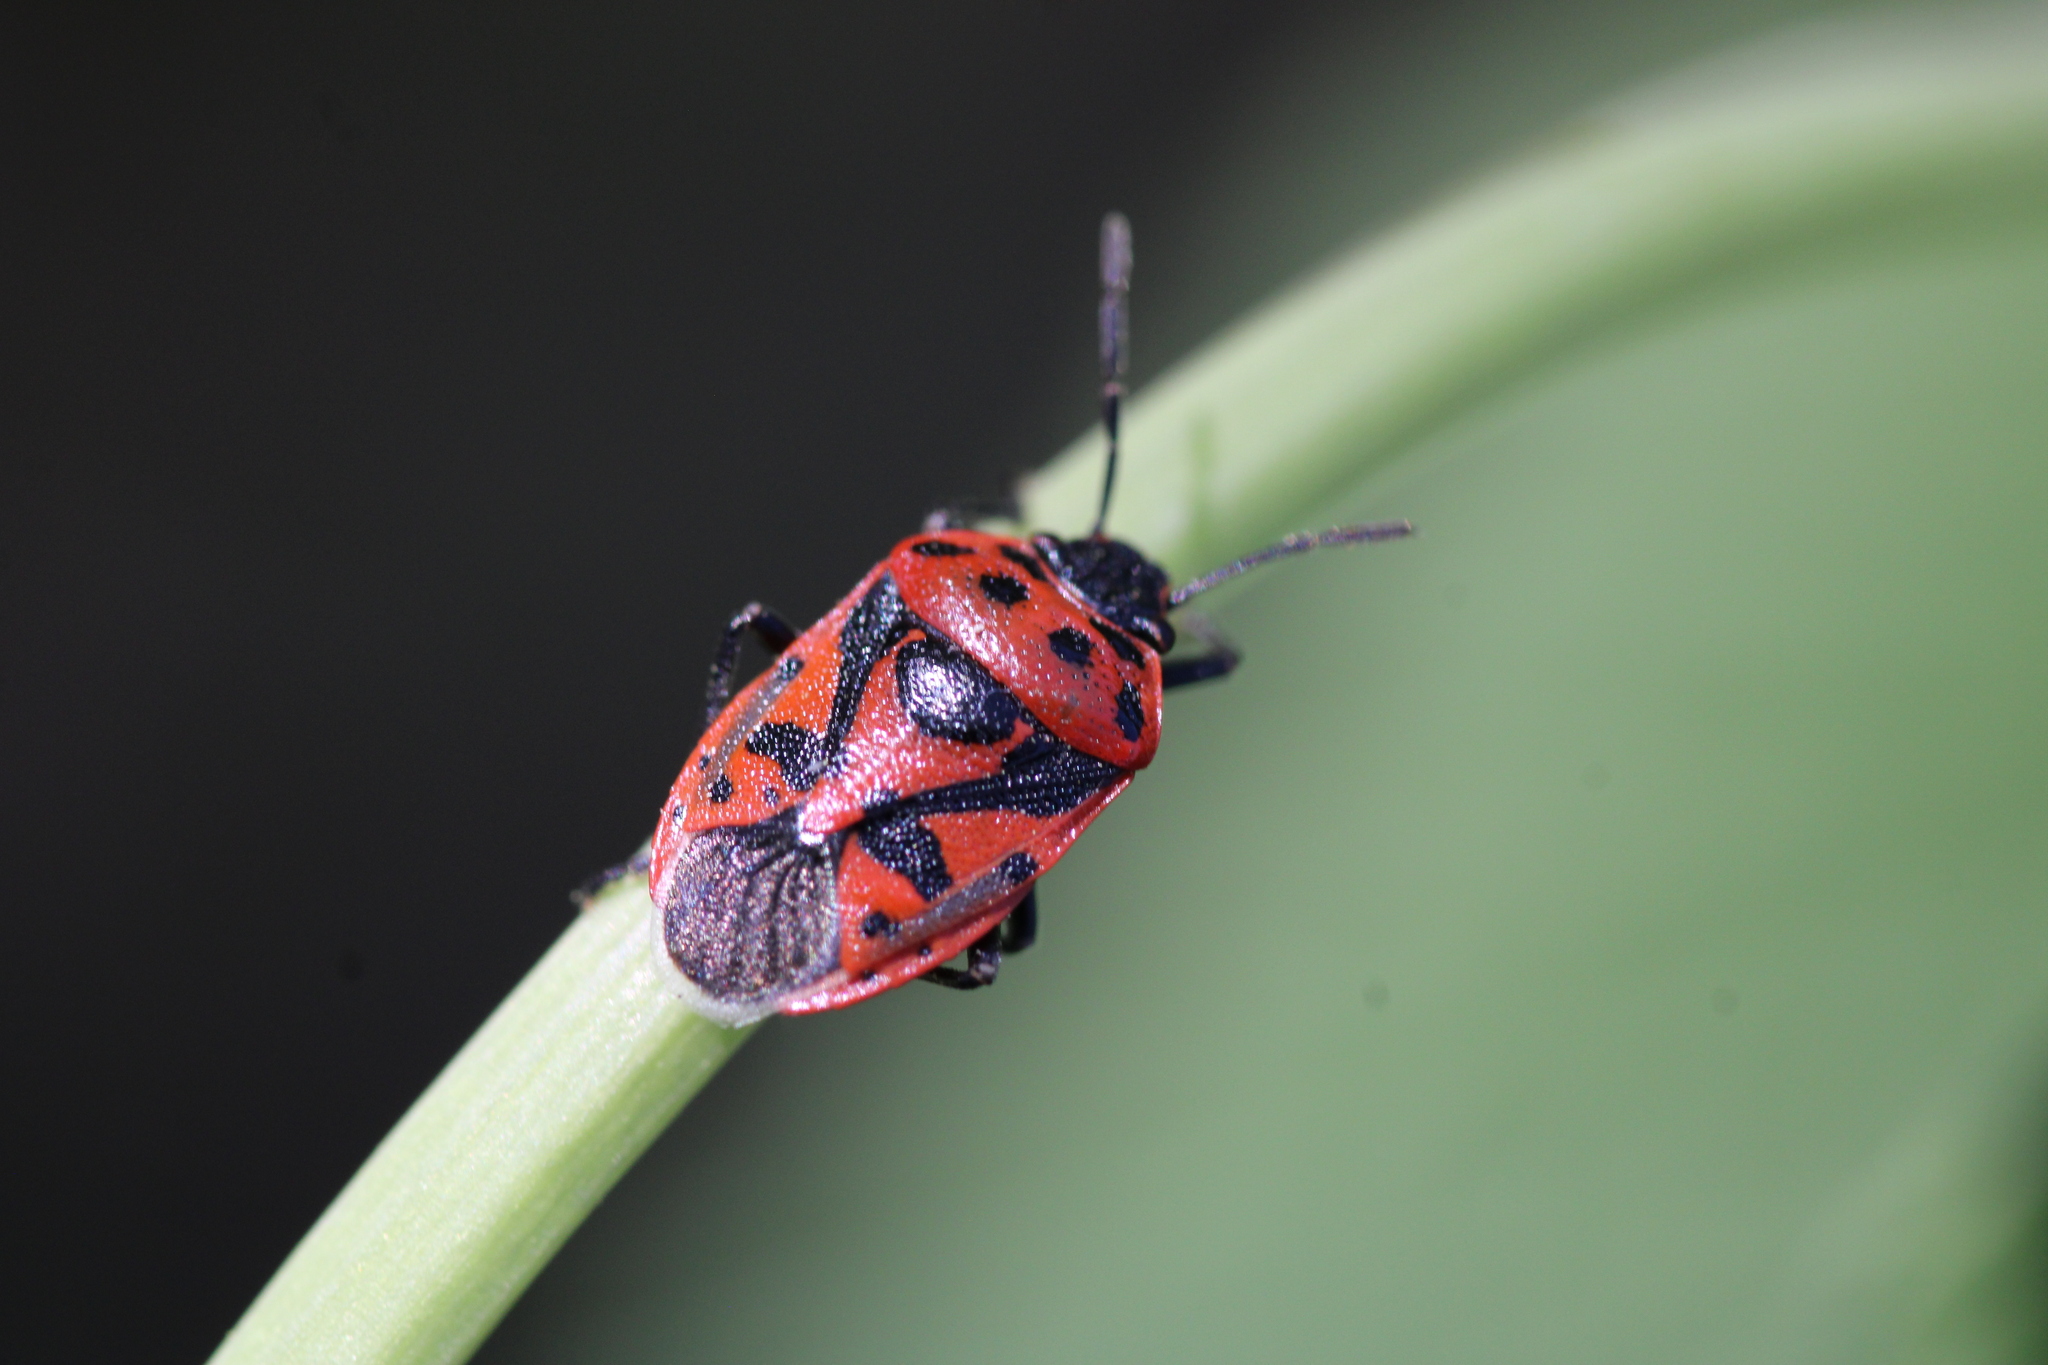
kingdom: Animalia
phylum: Arthropoda
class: Insecta
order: Hemiptera
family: Pentatomidae
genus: Eurydema
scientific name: Eurydema ornata
